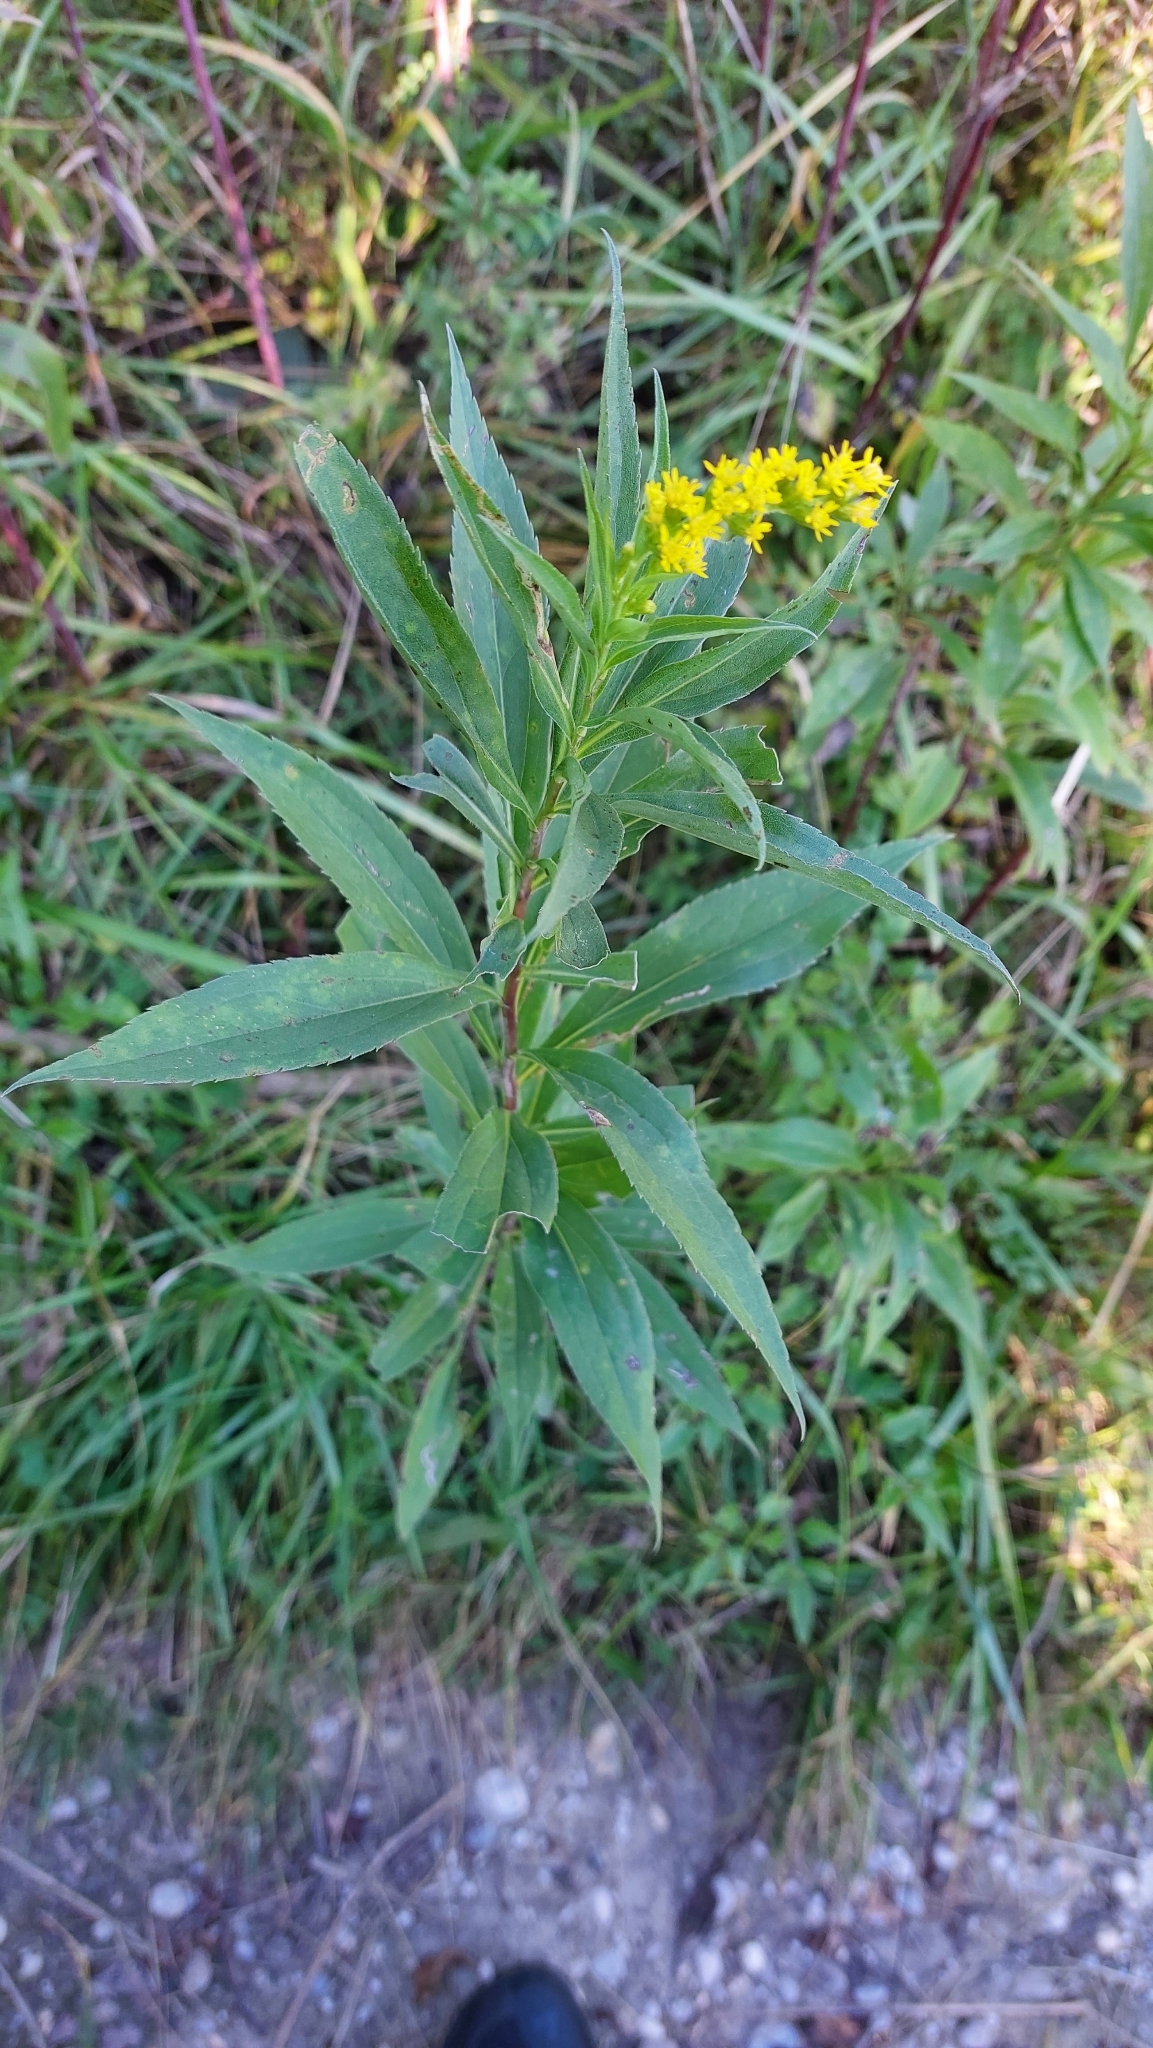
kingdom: Plantae
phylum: Tracheophyta
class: Magnoliopsida
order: Asterales
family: Asteraceae
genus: Solidago
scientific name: Solidago gigantea
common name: Giant goldenrod
